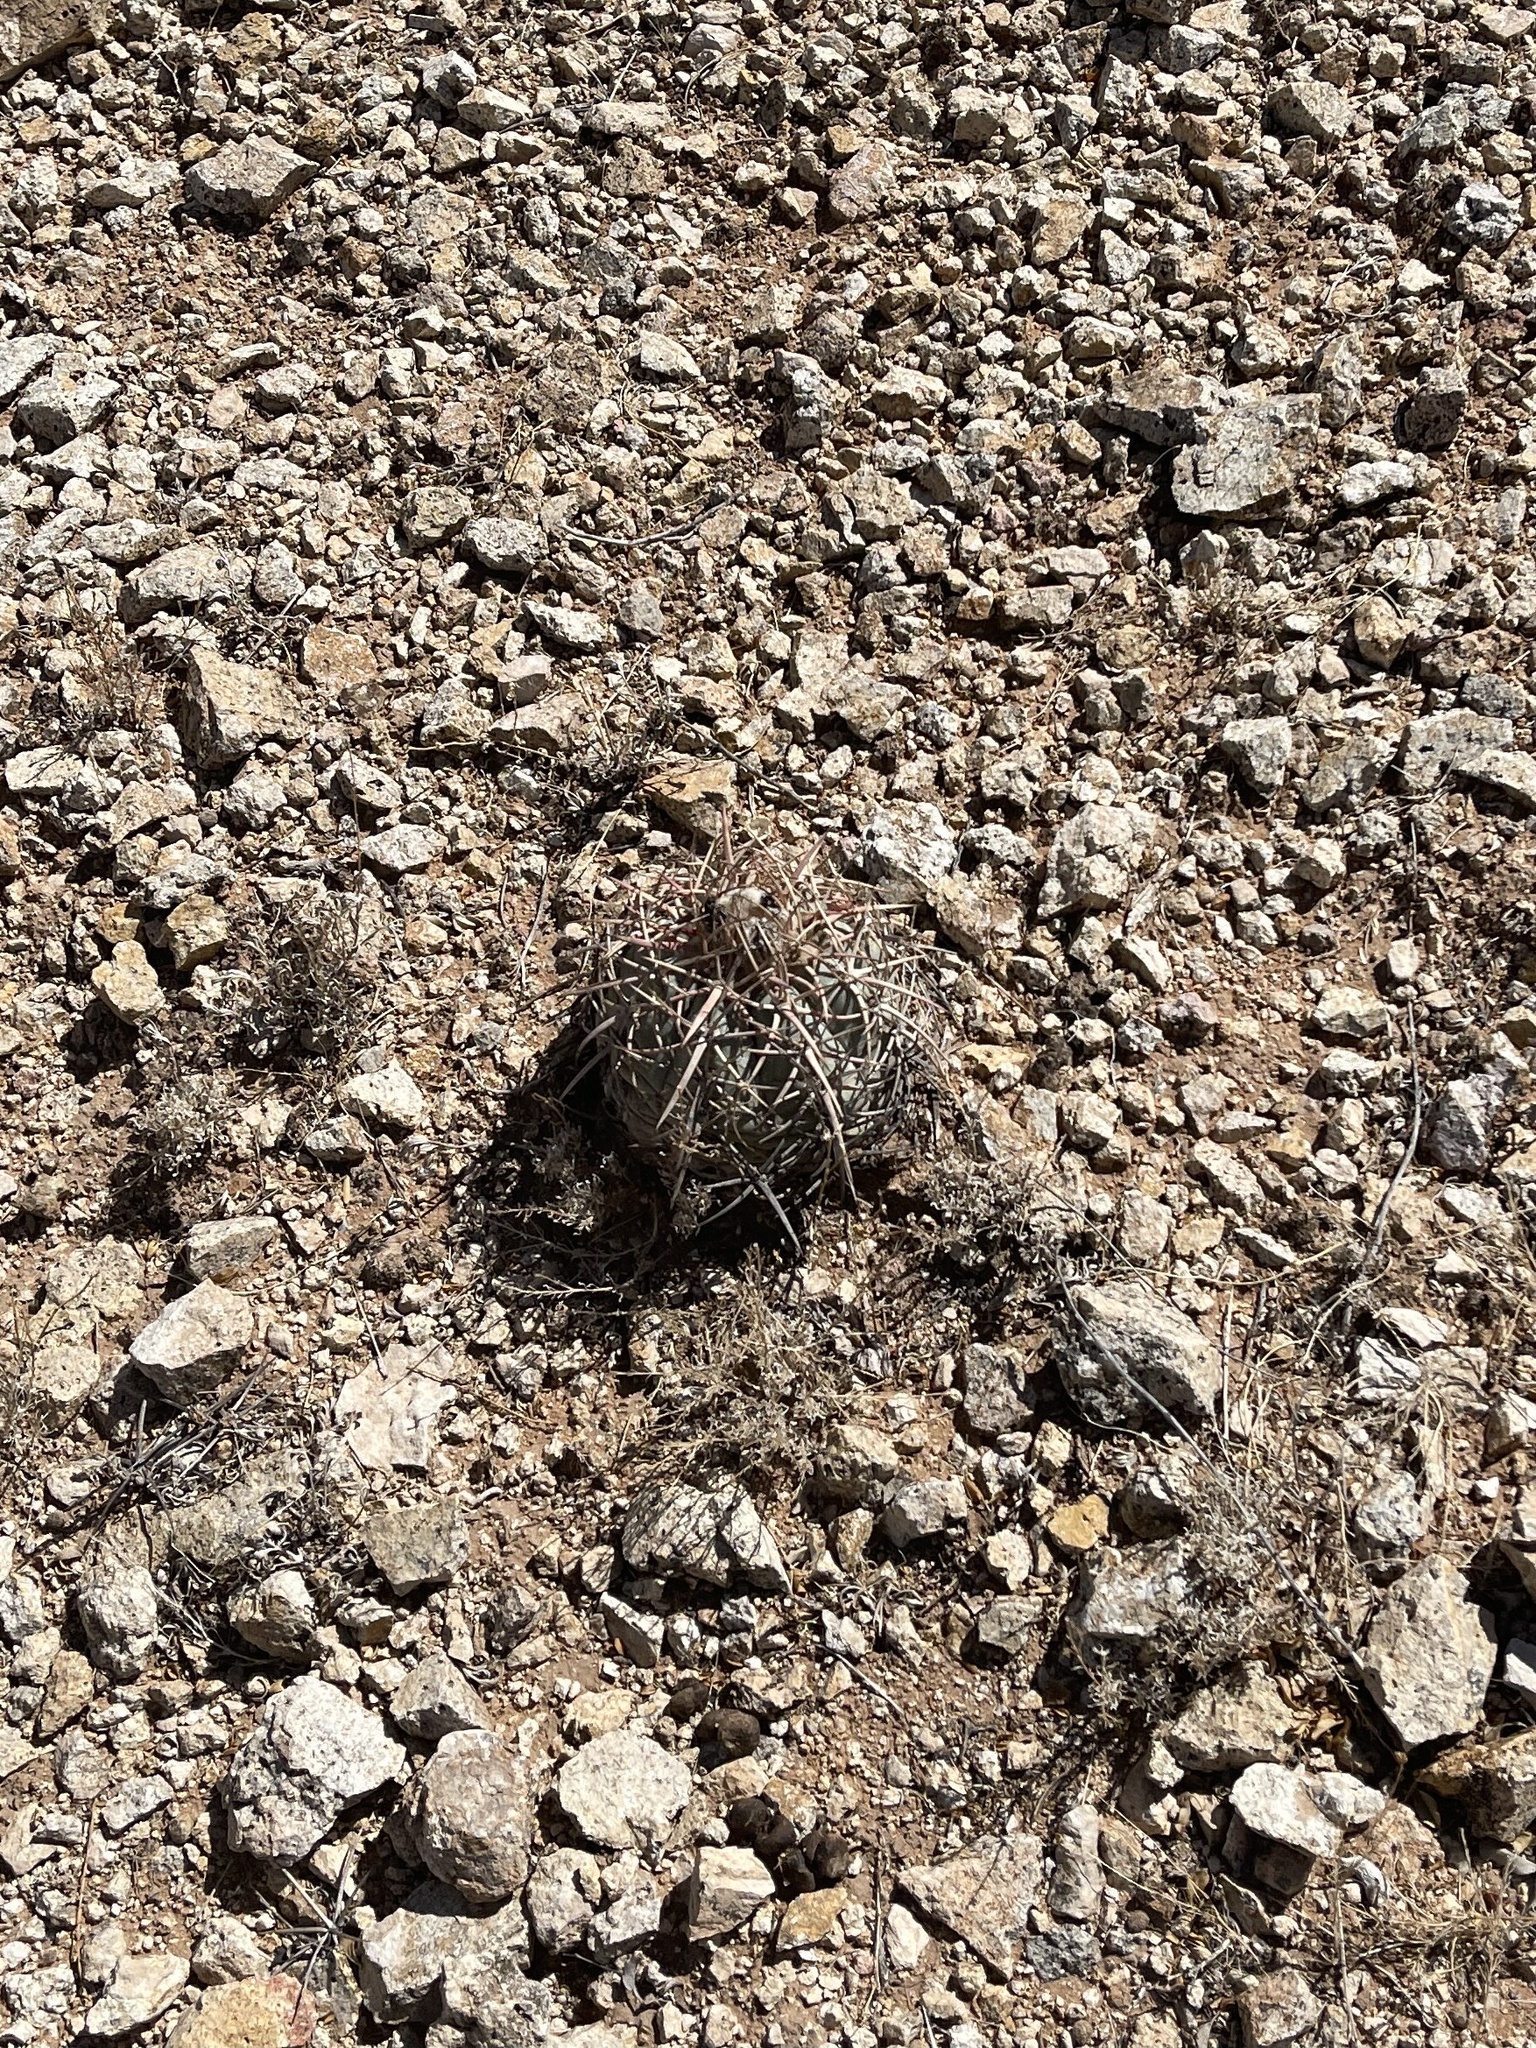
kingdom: Plantae
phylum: Tracheophyta
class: Magnoliopsida
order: Caryophyllales
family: Cactaceae
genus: Echinocactus
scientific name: Echinocactus horizonthalonius
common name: Devilshead
